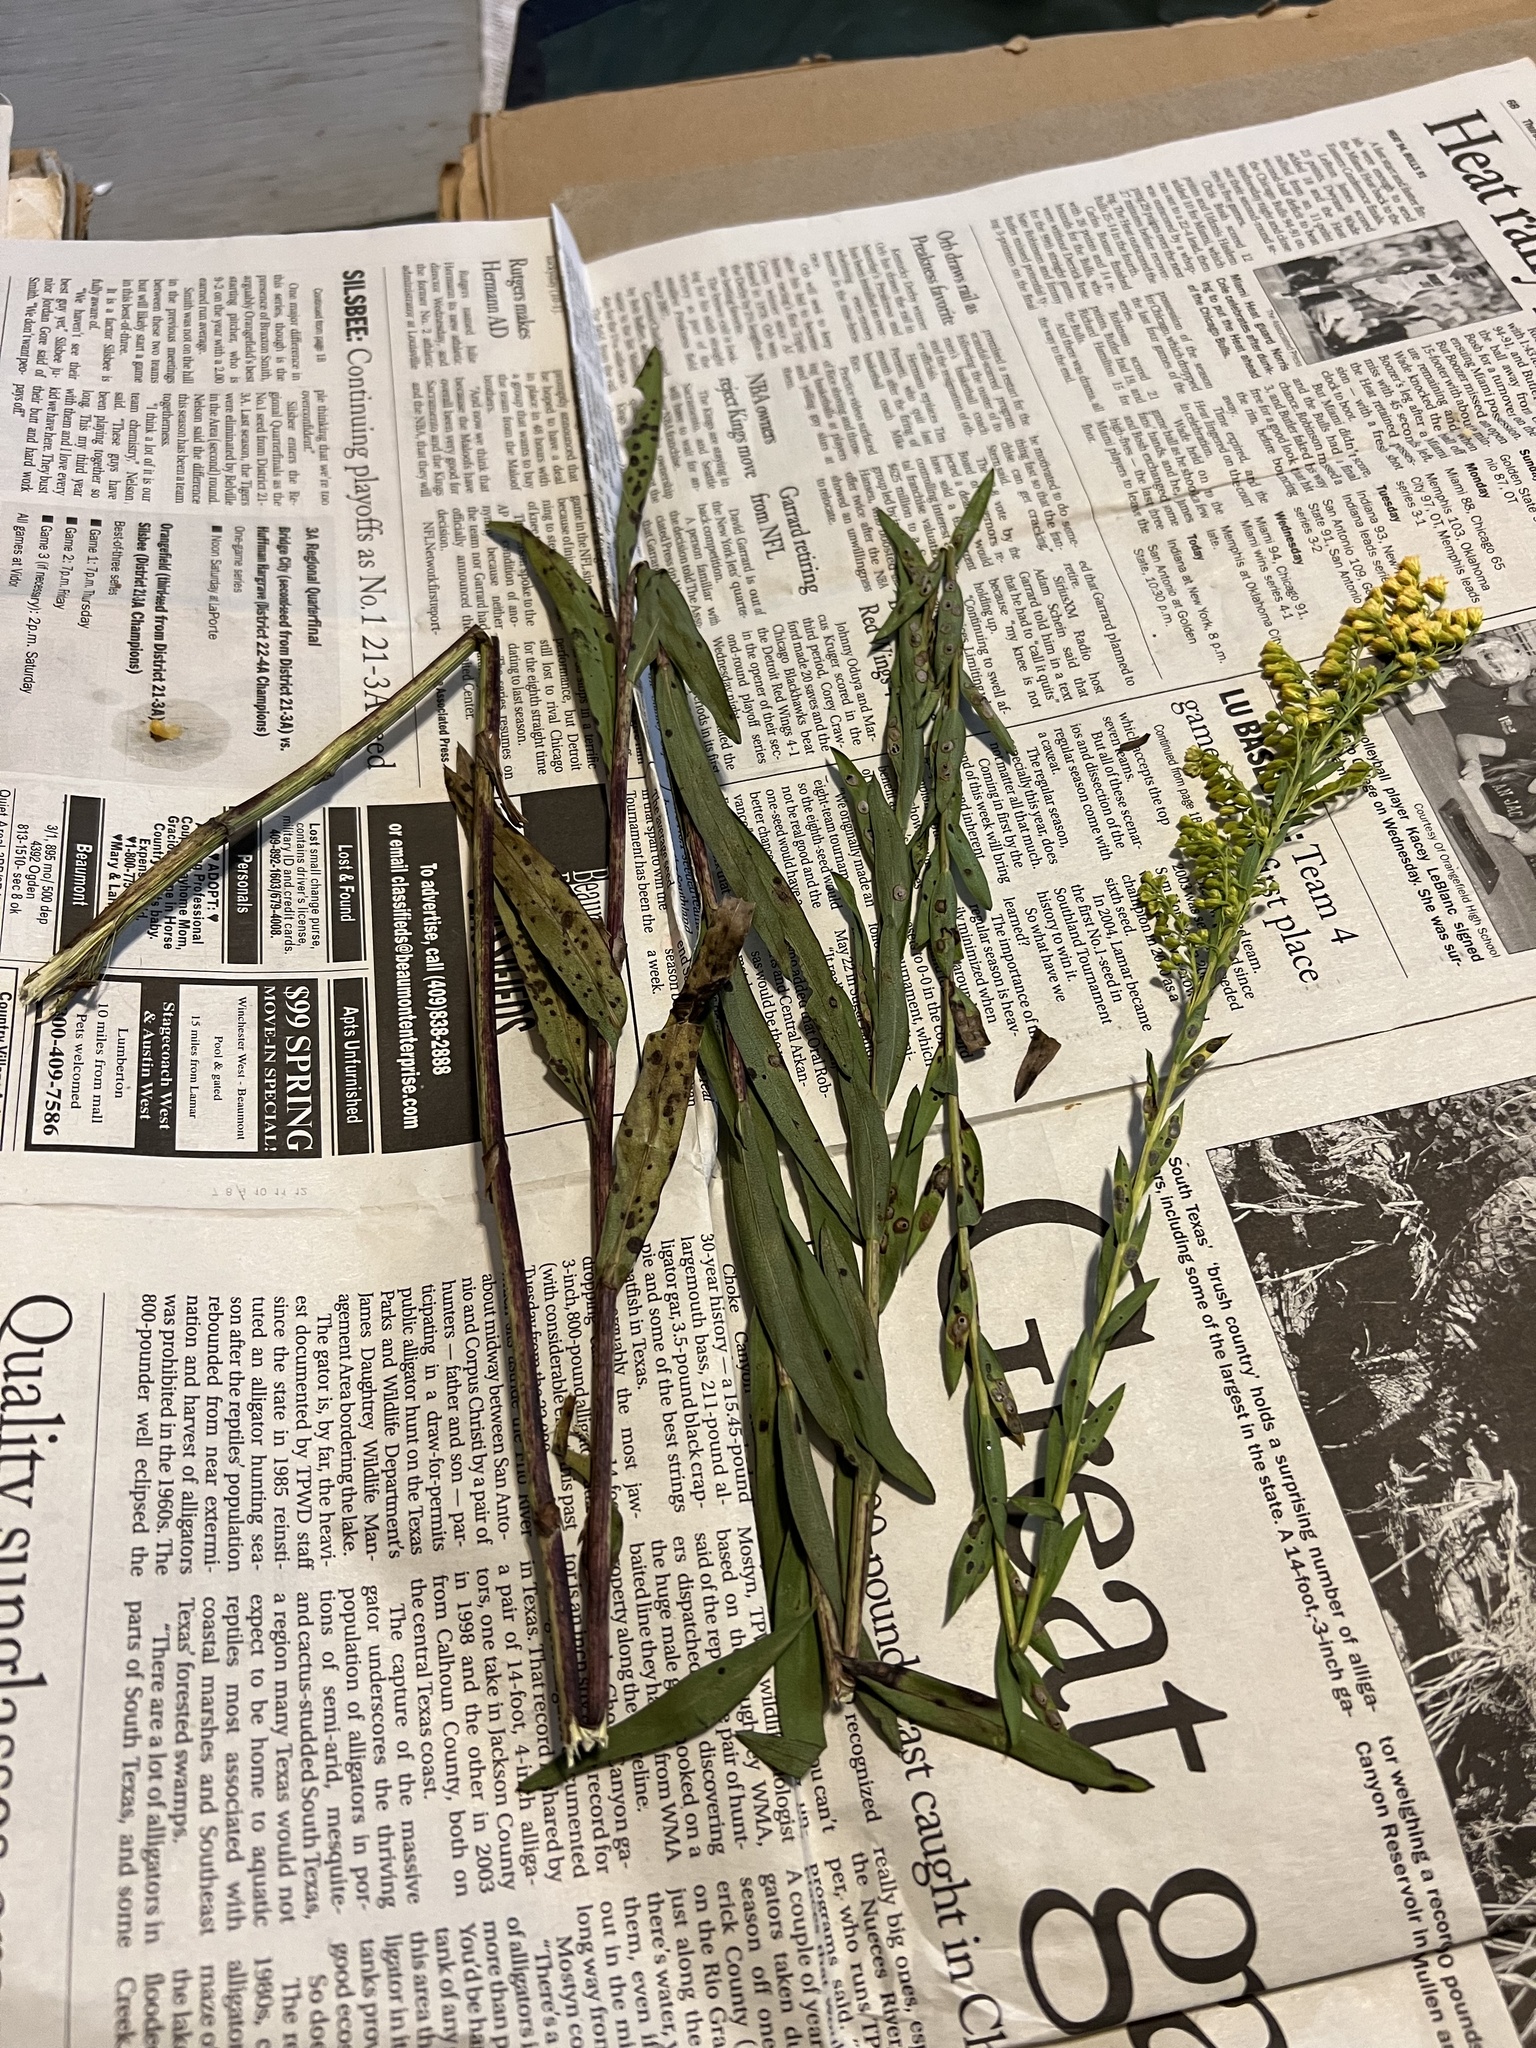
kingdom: Plantae
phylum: Tracheophyta
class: Magnoliopsida
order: Asterales
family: Asteraceae
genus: Solidago
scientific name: Solidago mexicana
